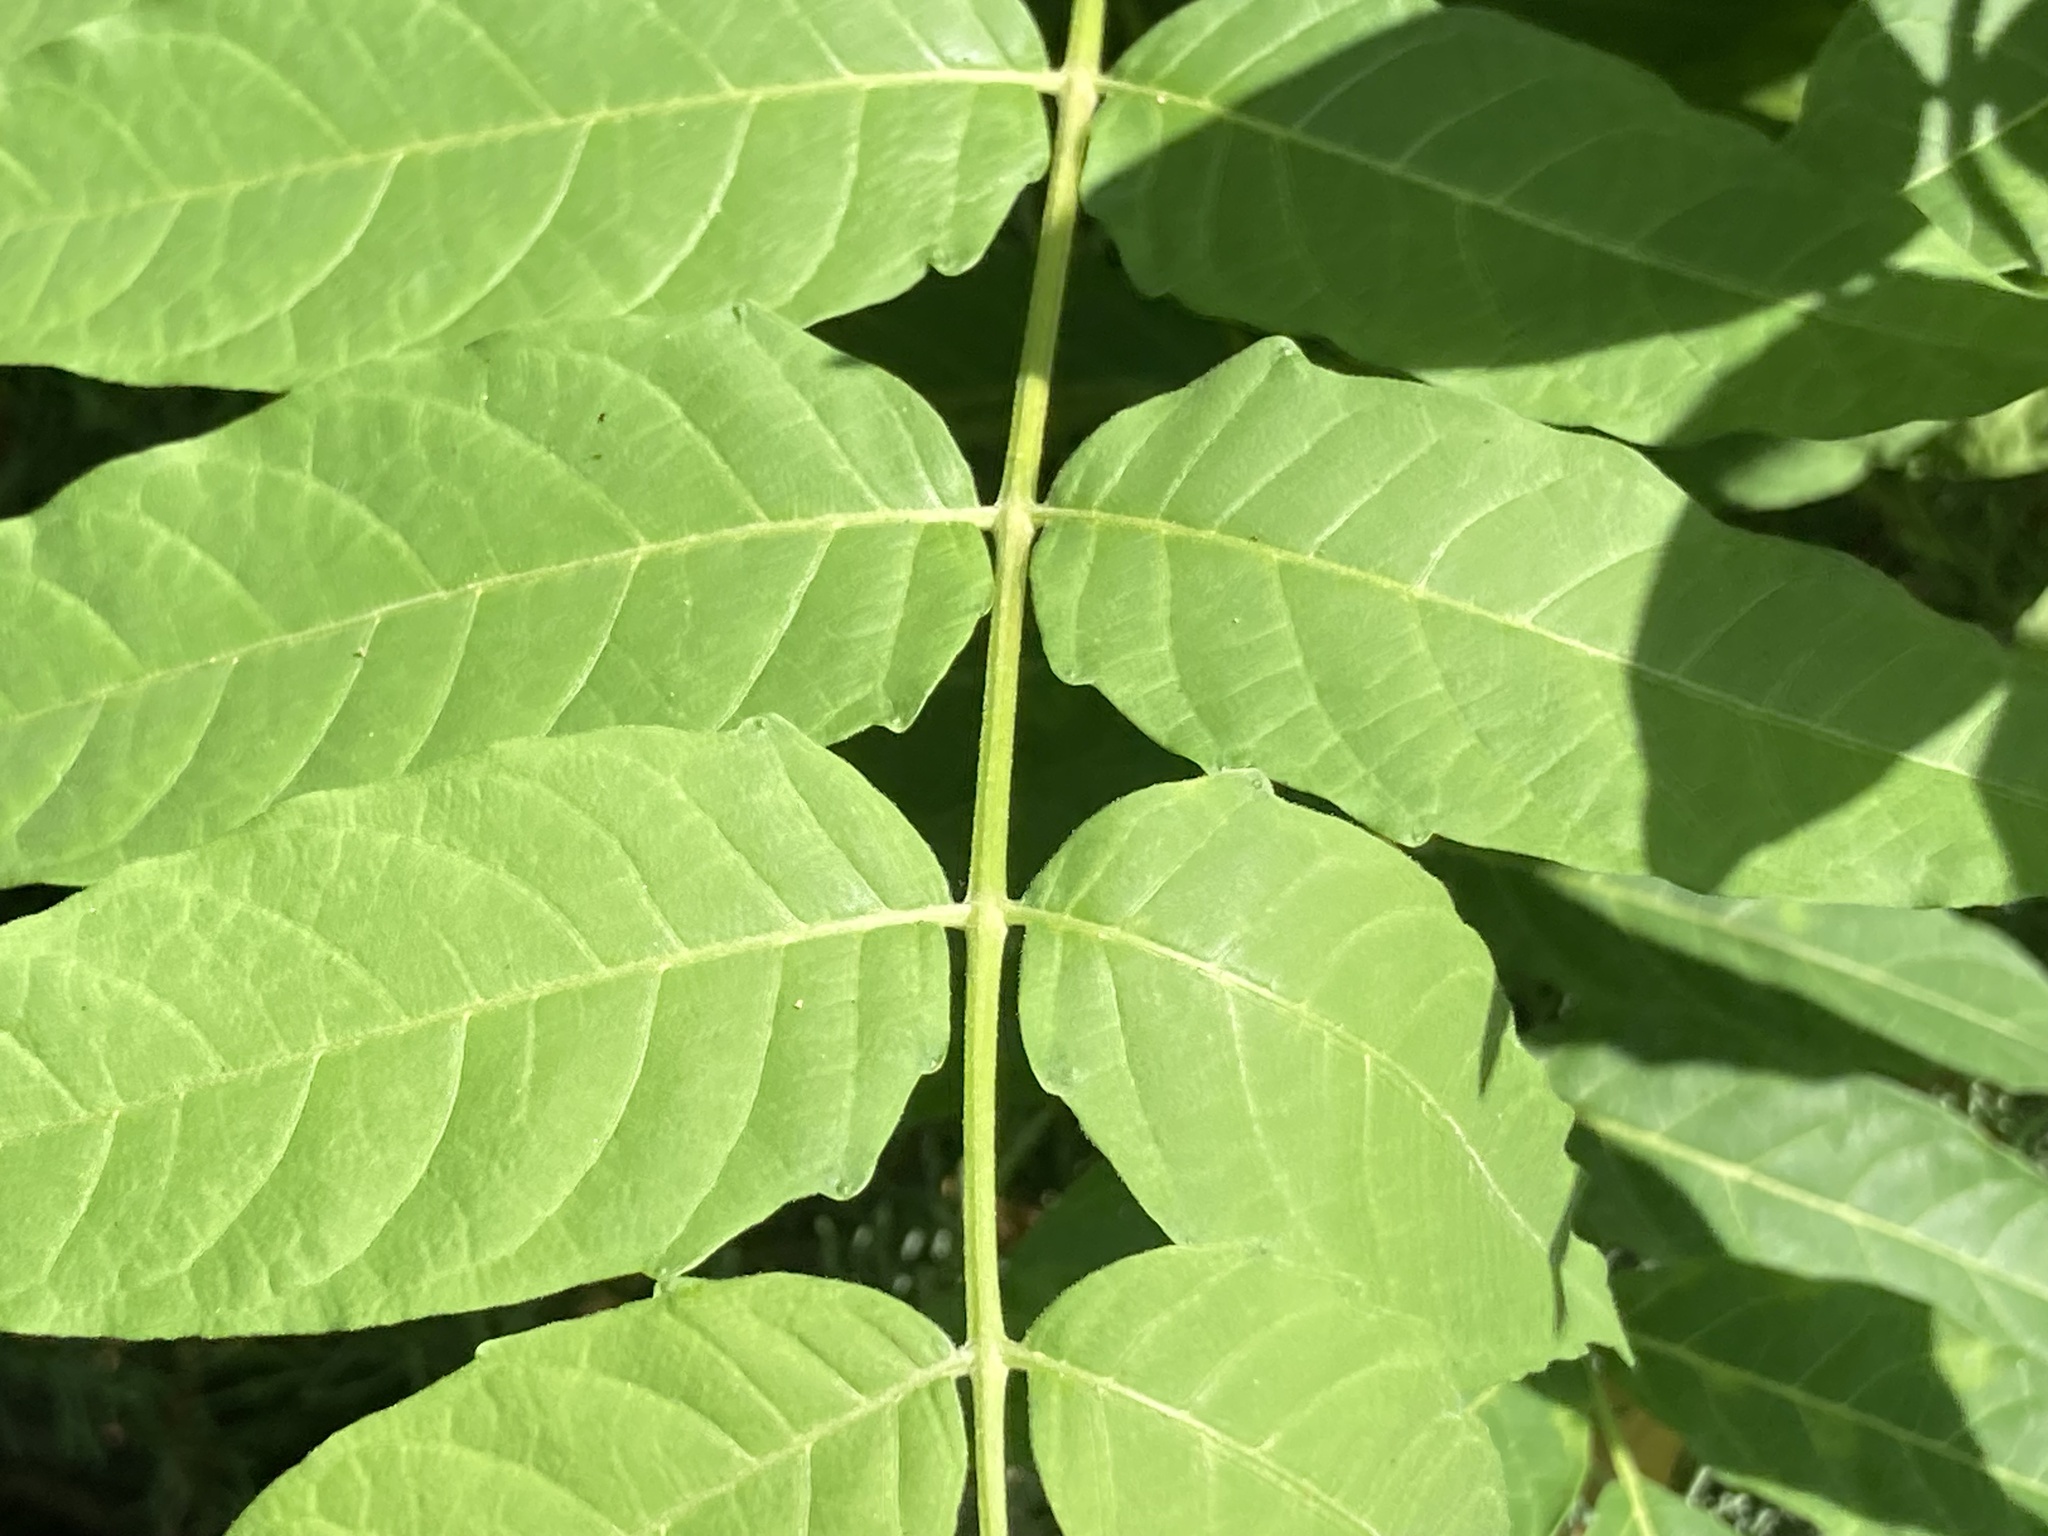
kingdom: Plantae
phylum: Tracheophyta
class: Magnoliopsida
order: Sapindales
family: Simaroubaceae
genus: Ailanthus
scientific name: Ailanthus altissima
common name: Tree-of-heaven
